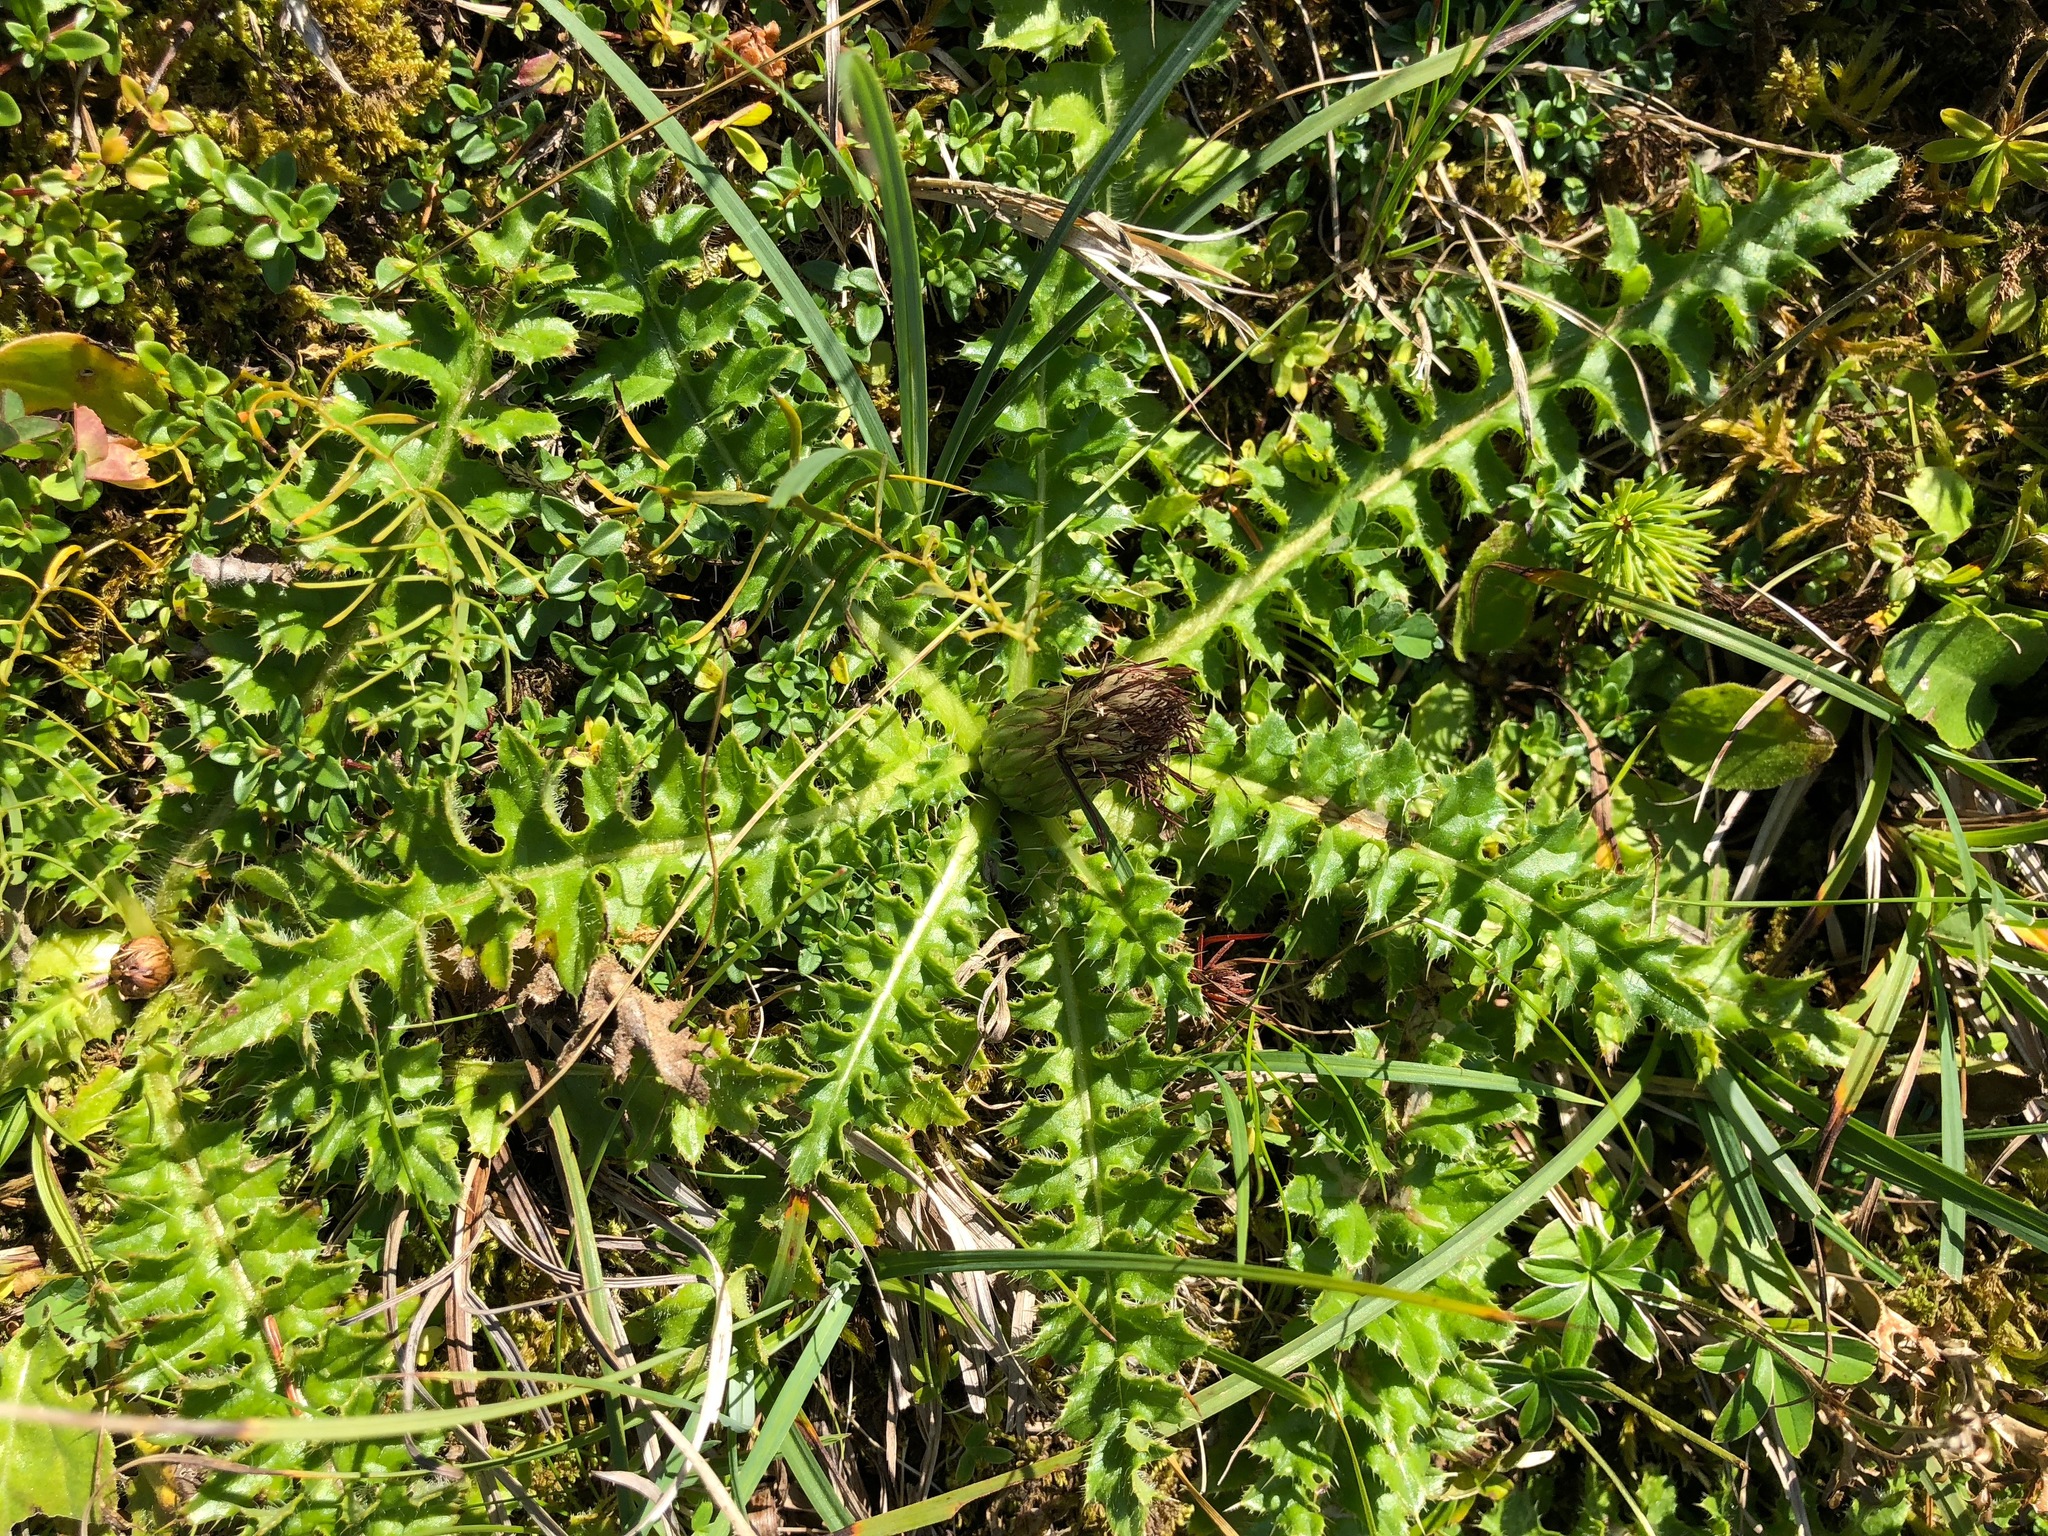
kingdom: Plantae
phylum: Tracheophyta
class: Magnoliopsida
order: Asterales
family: Asteraceae
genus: Cirsium
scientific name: Cirsium acaulon
